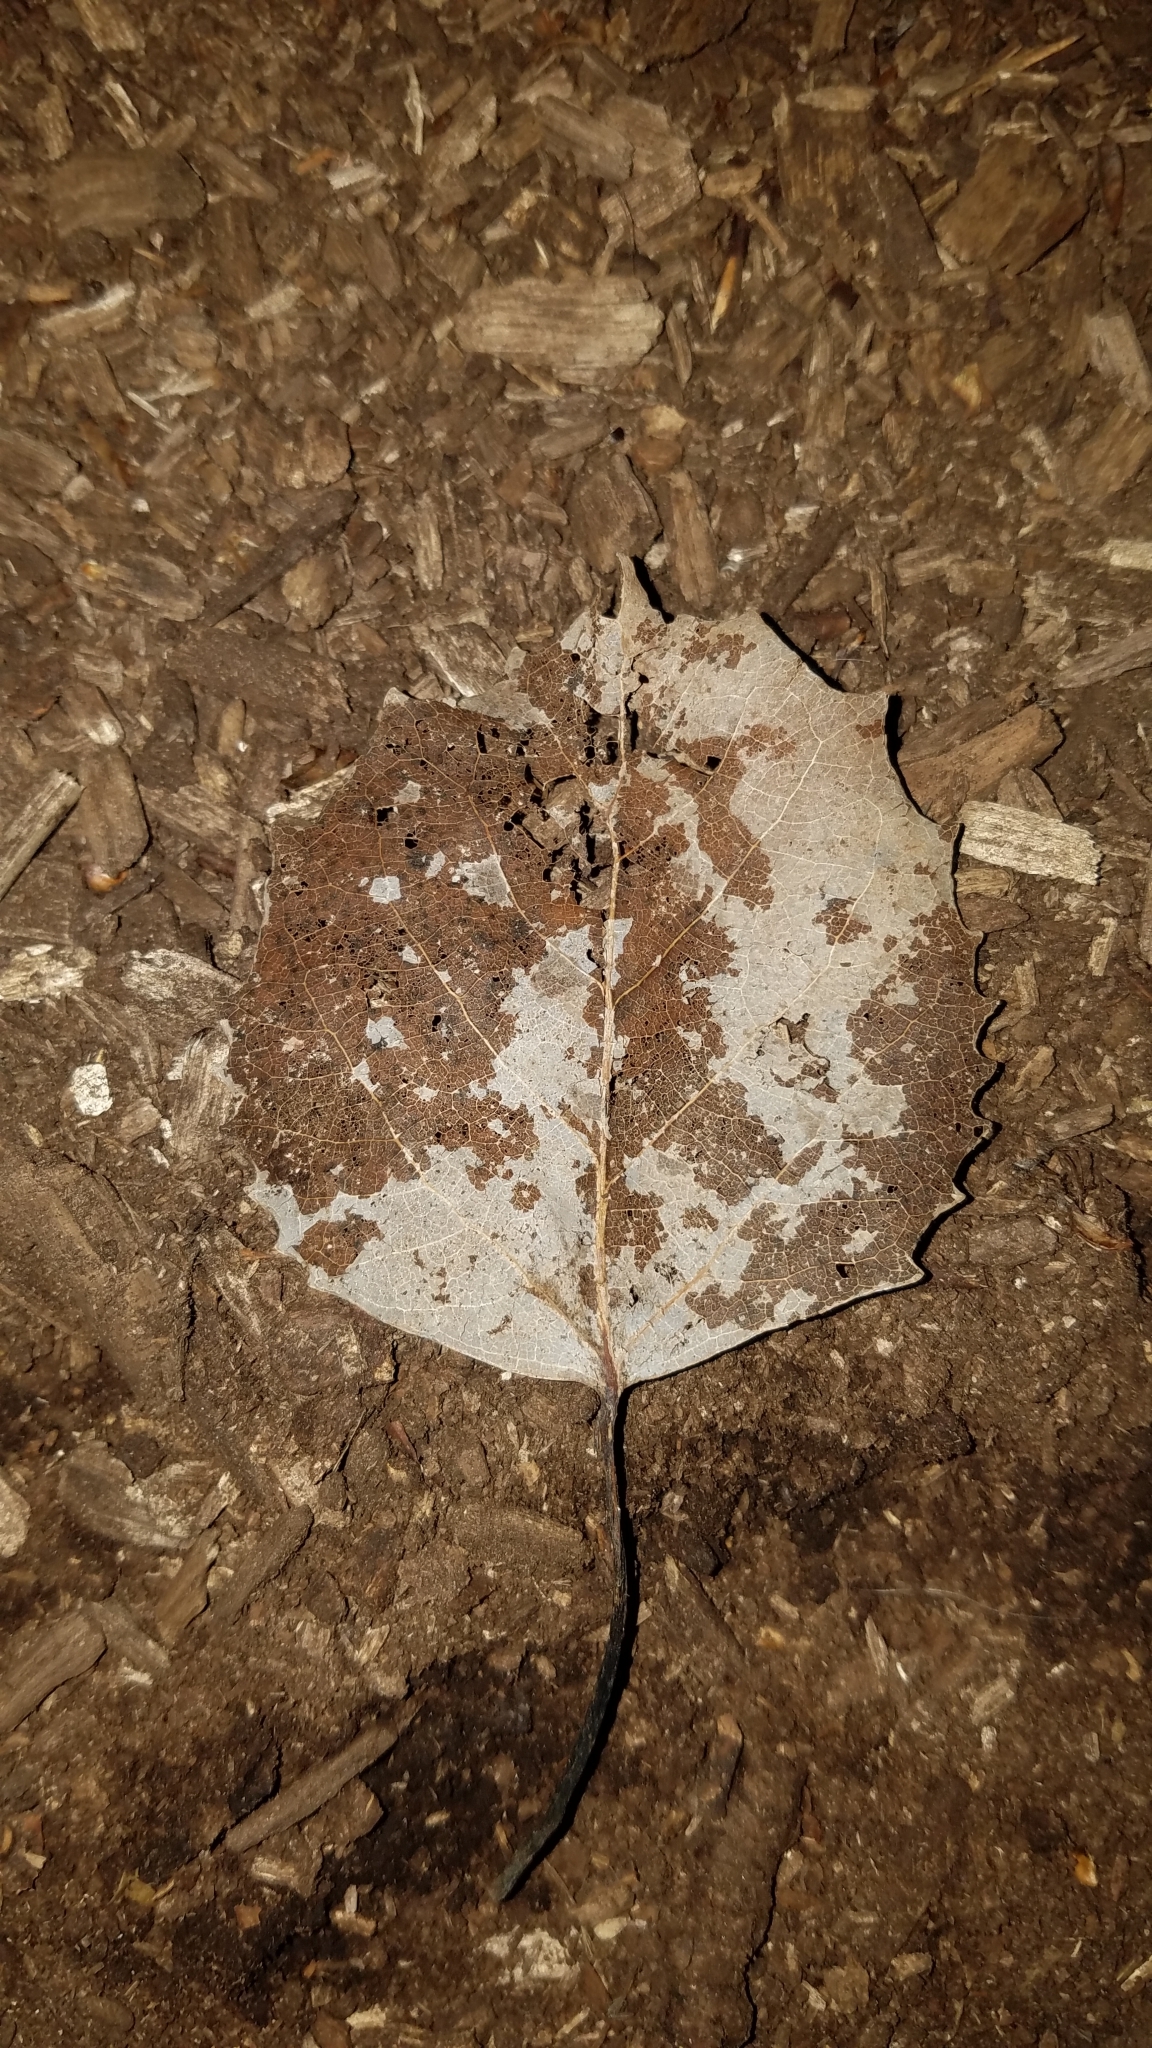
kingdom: Plantae
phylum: Tracheophyta
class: Magnoliopsida
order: Malpighiales
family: Salicaceae
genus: Populus
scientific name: Populus grandidentata
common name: Bigtooth aspen
